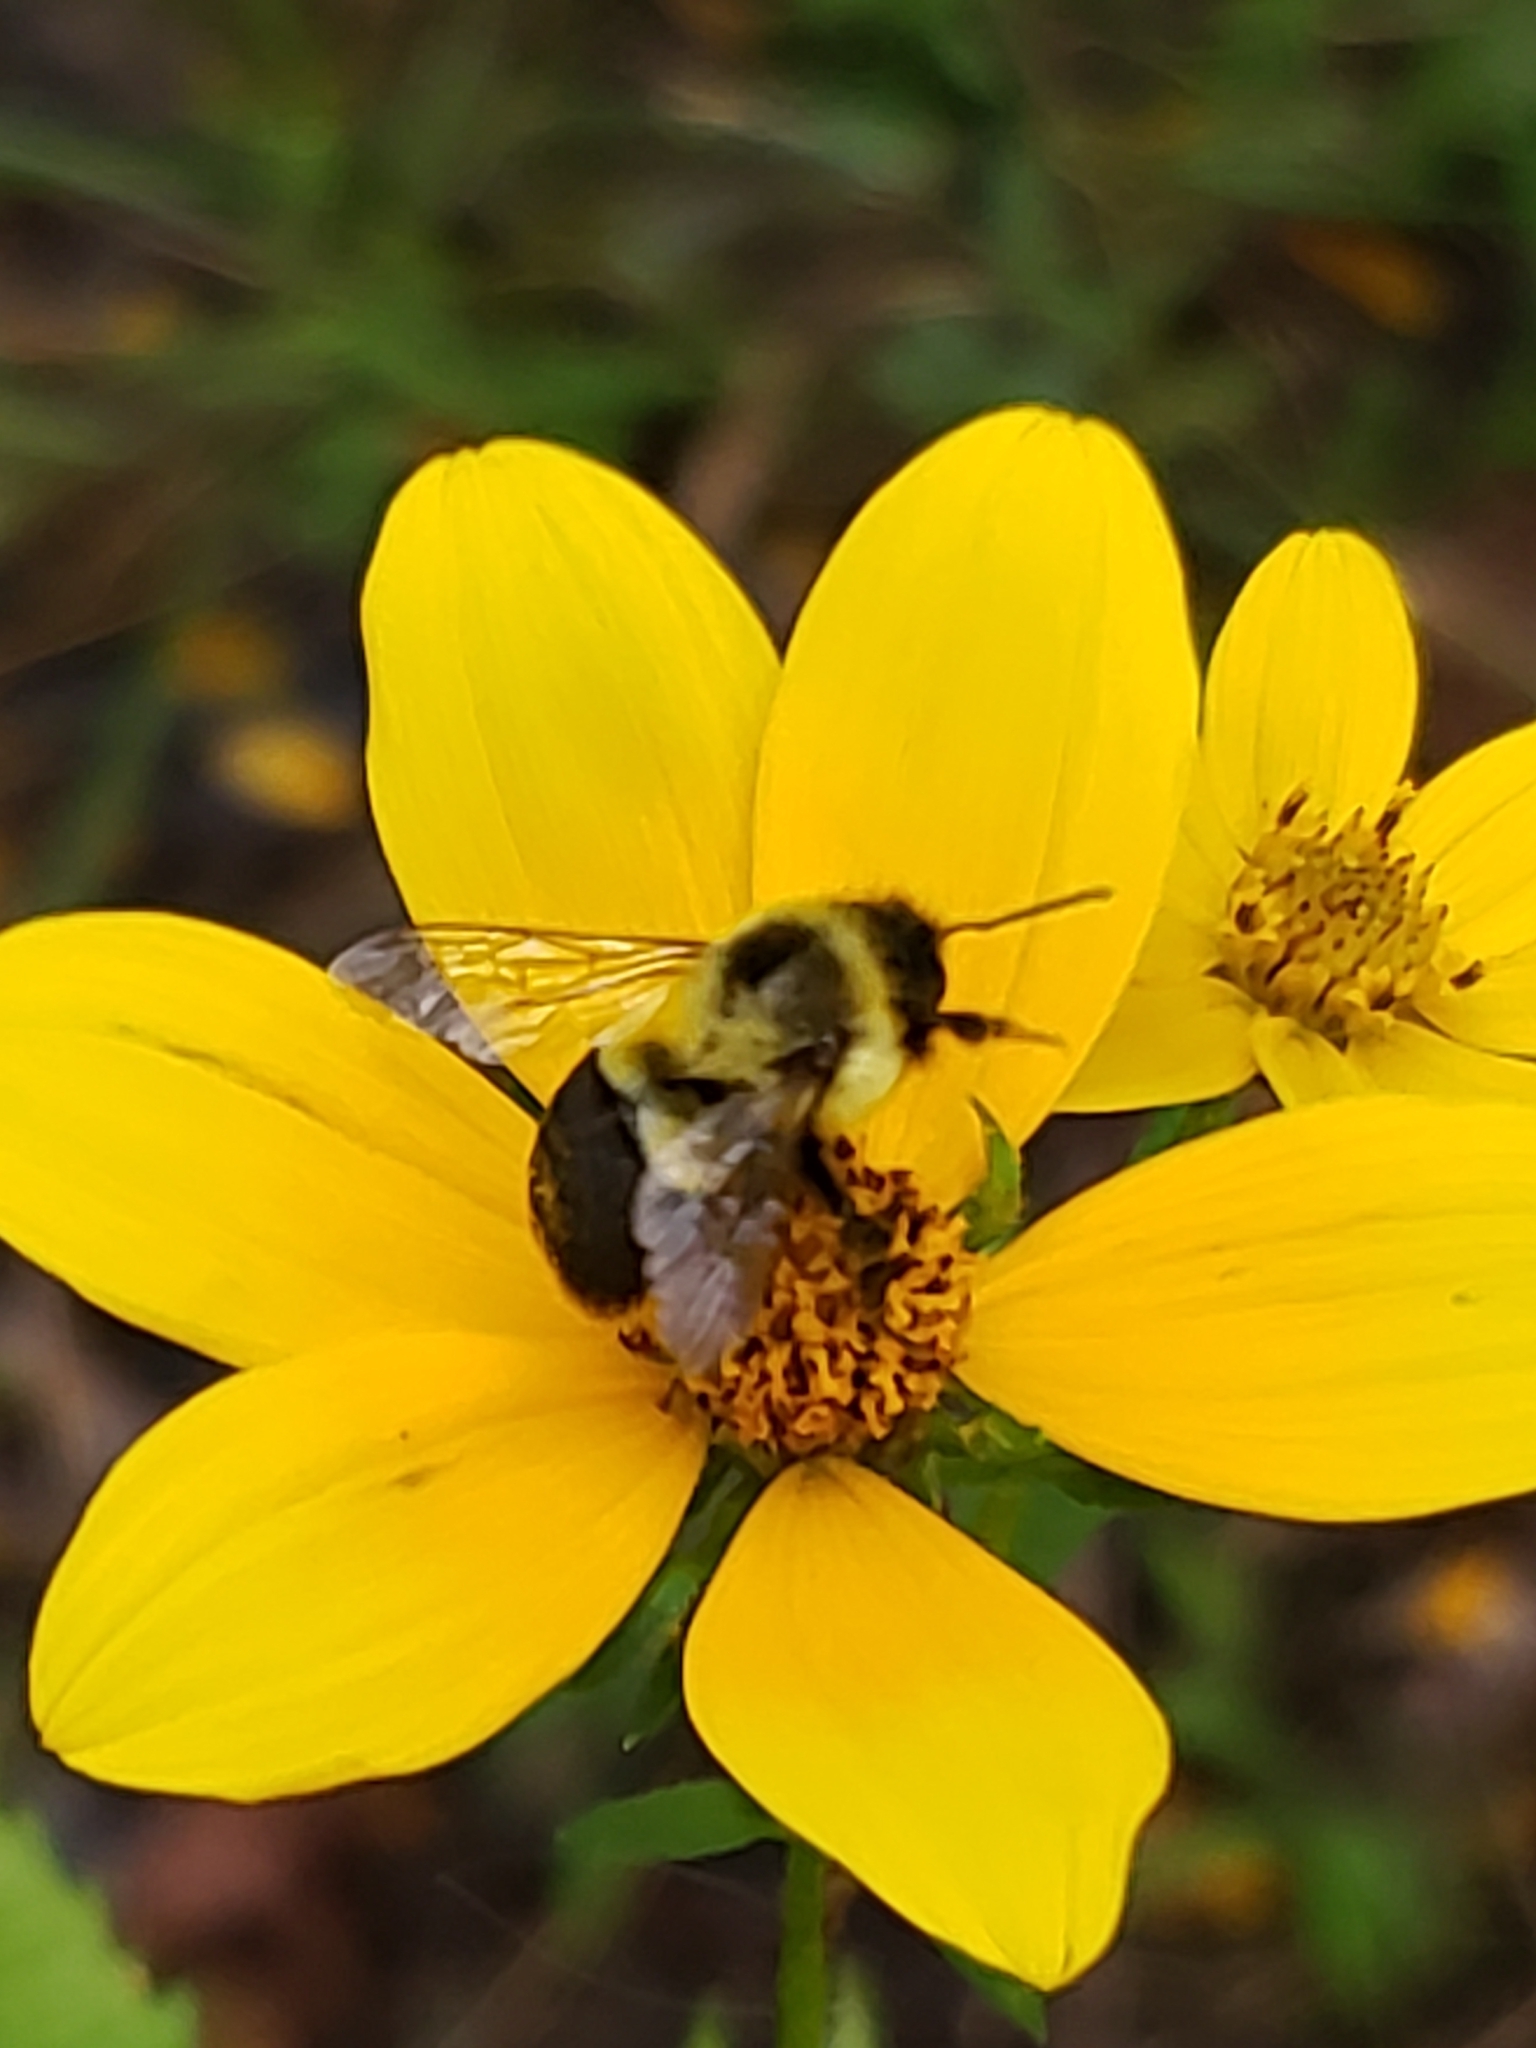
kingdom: Animalia
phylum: Arthropoda
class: Insecta
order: Hymenoptera
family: Apidae
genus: Bombus
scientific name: Bombus impatiens
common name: Common eastern bumble bee
